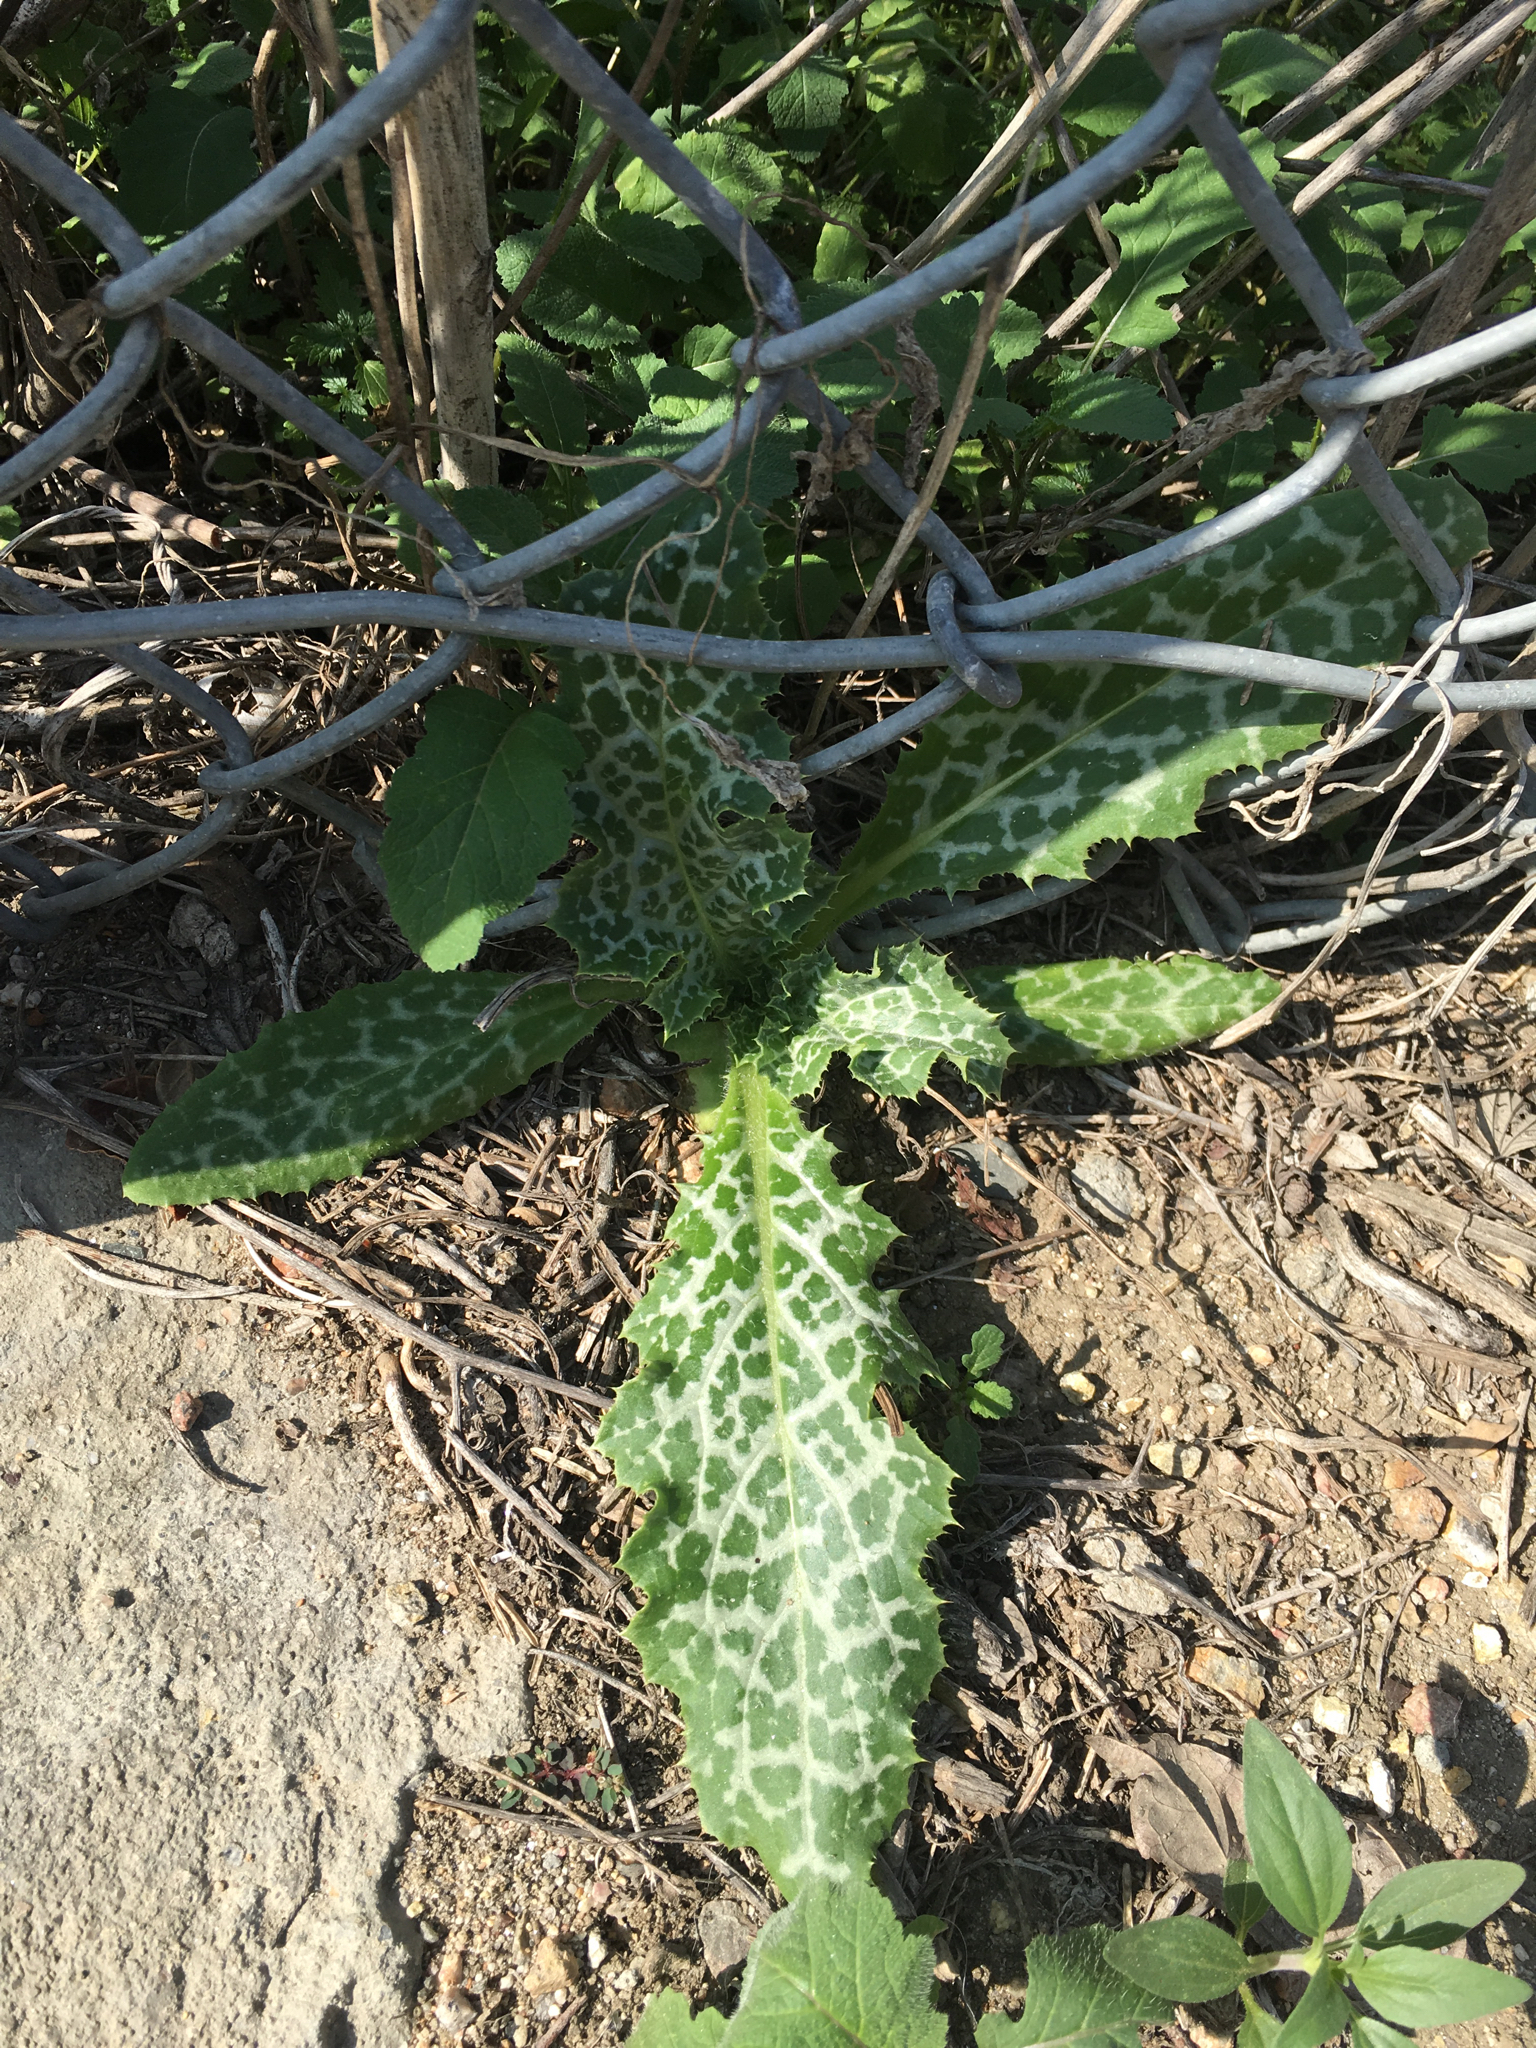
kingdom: Plantae
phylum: Tracheophyta
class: Magnoliopsida
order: Asterales
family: Asteraceae
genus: Silybum
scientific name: Silybum marianum
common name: Milk thistle
